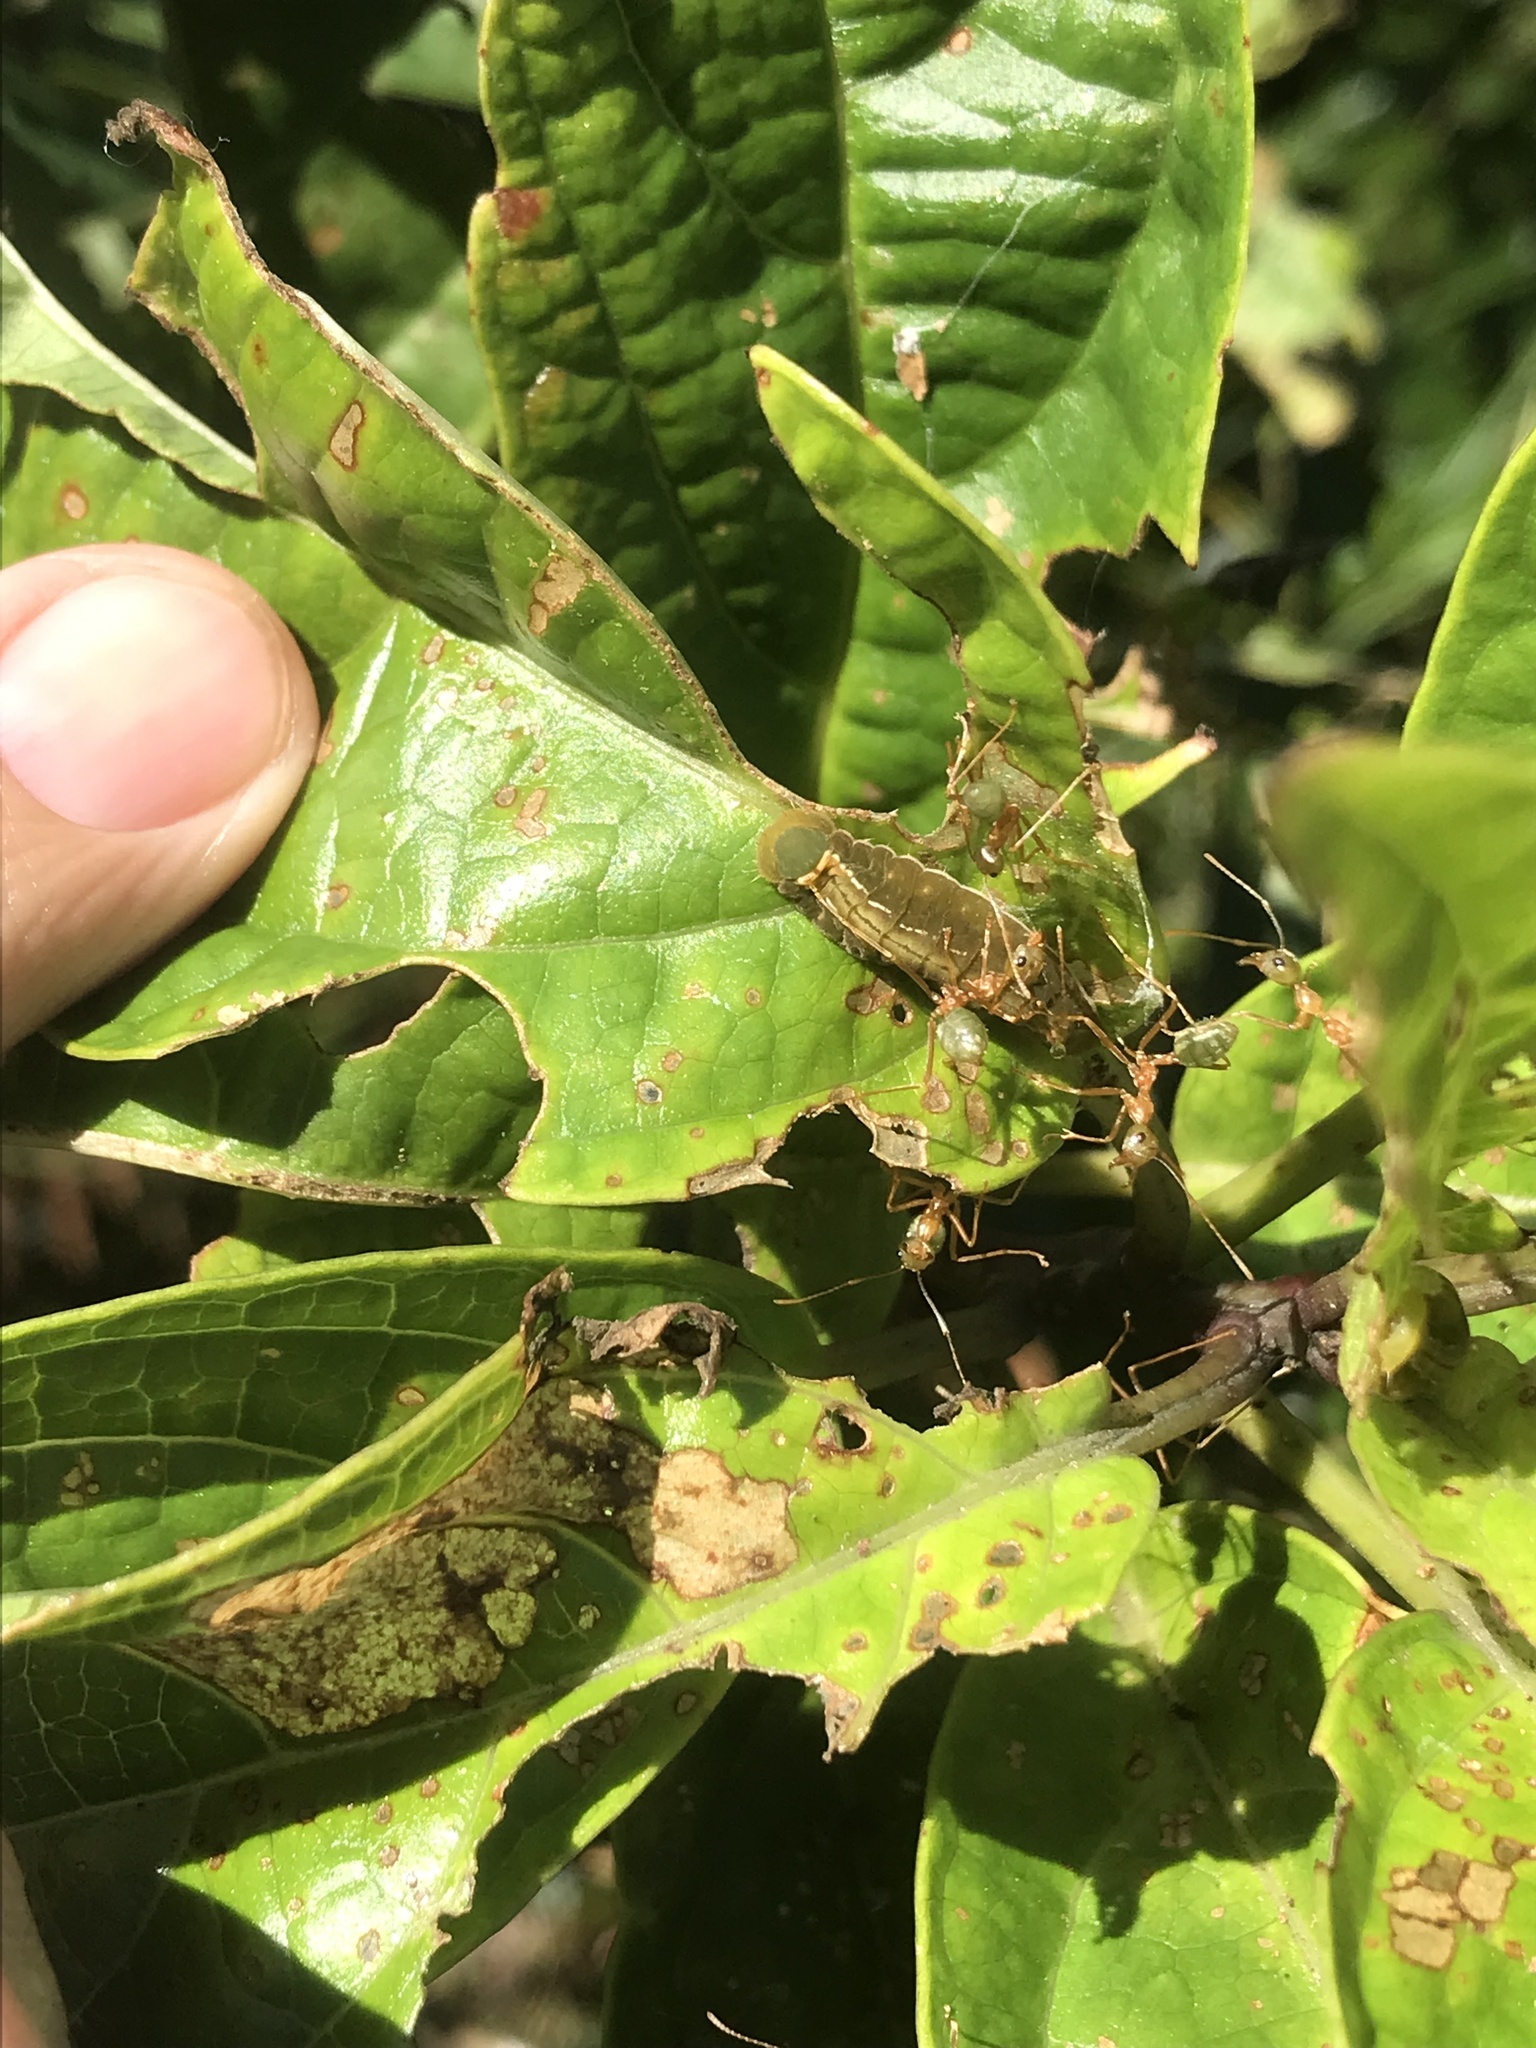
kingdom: Animalia
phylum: Arthropoda
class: Insecta
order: Lepidoptera
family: Lycaenidae
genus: Hypolycaena
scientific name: Hypolycaena phorbas
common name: Black-spotted flash
